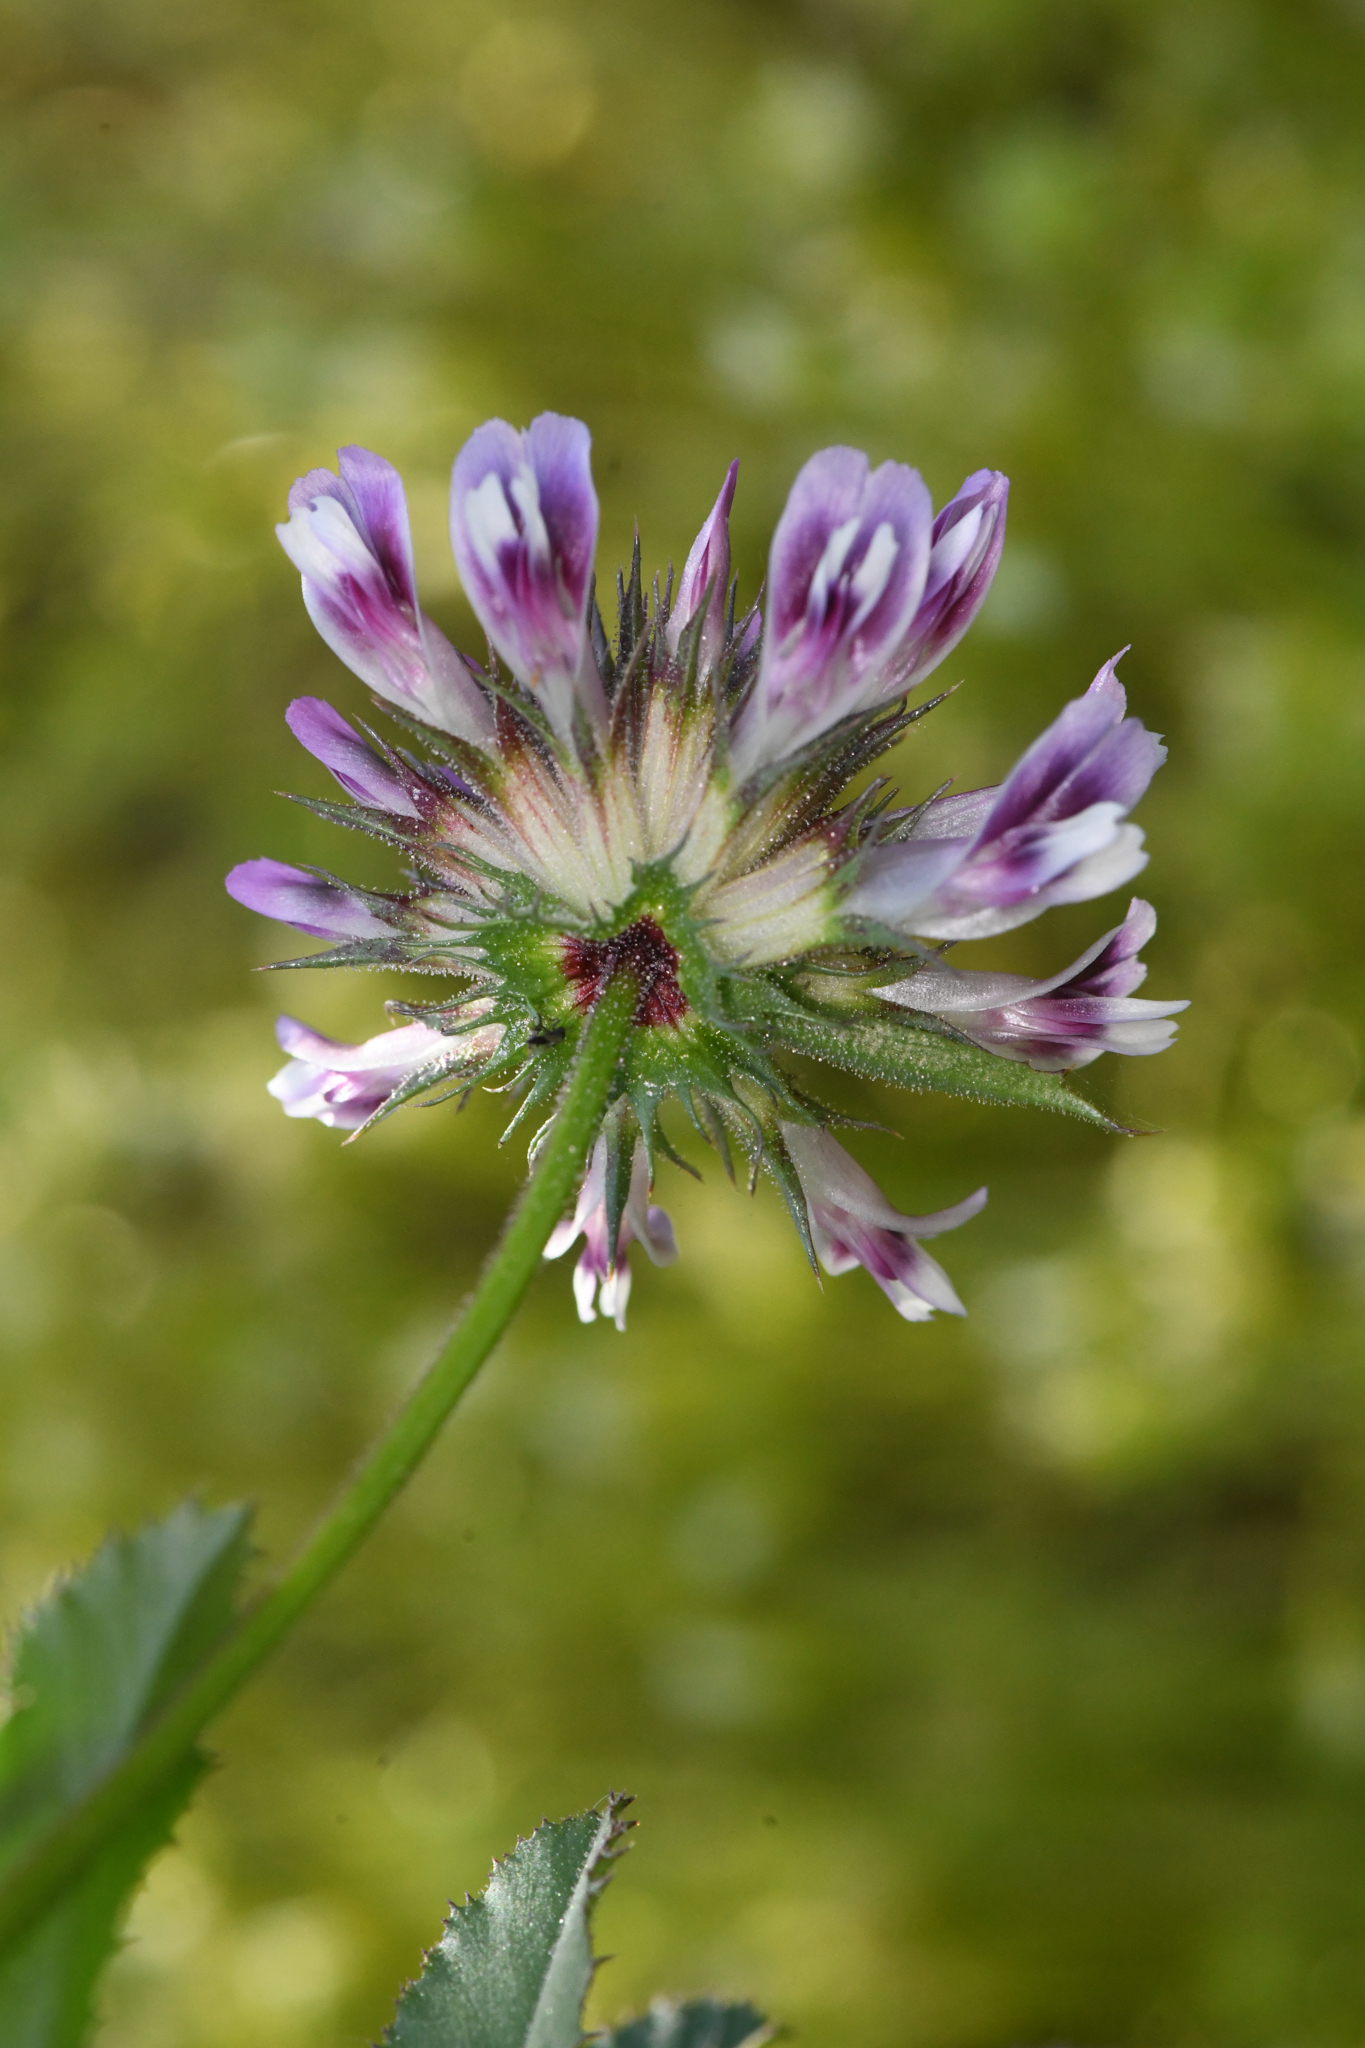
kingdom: Plantae
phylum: Tracheophyta
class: Magnoliopsida
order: Fabales
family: Fabaceae
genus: Trifolium
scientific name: Trifolium obtusiflorum
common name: Clammy clover
